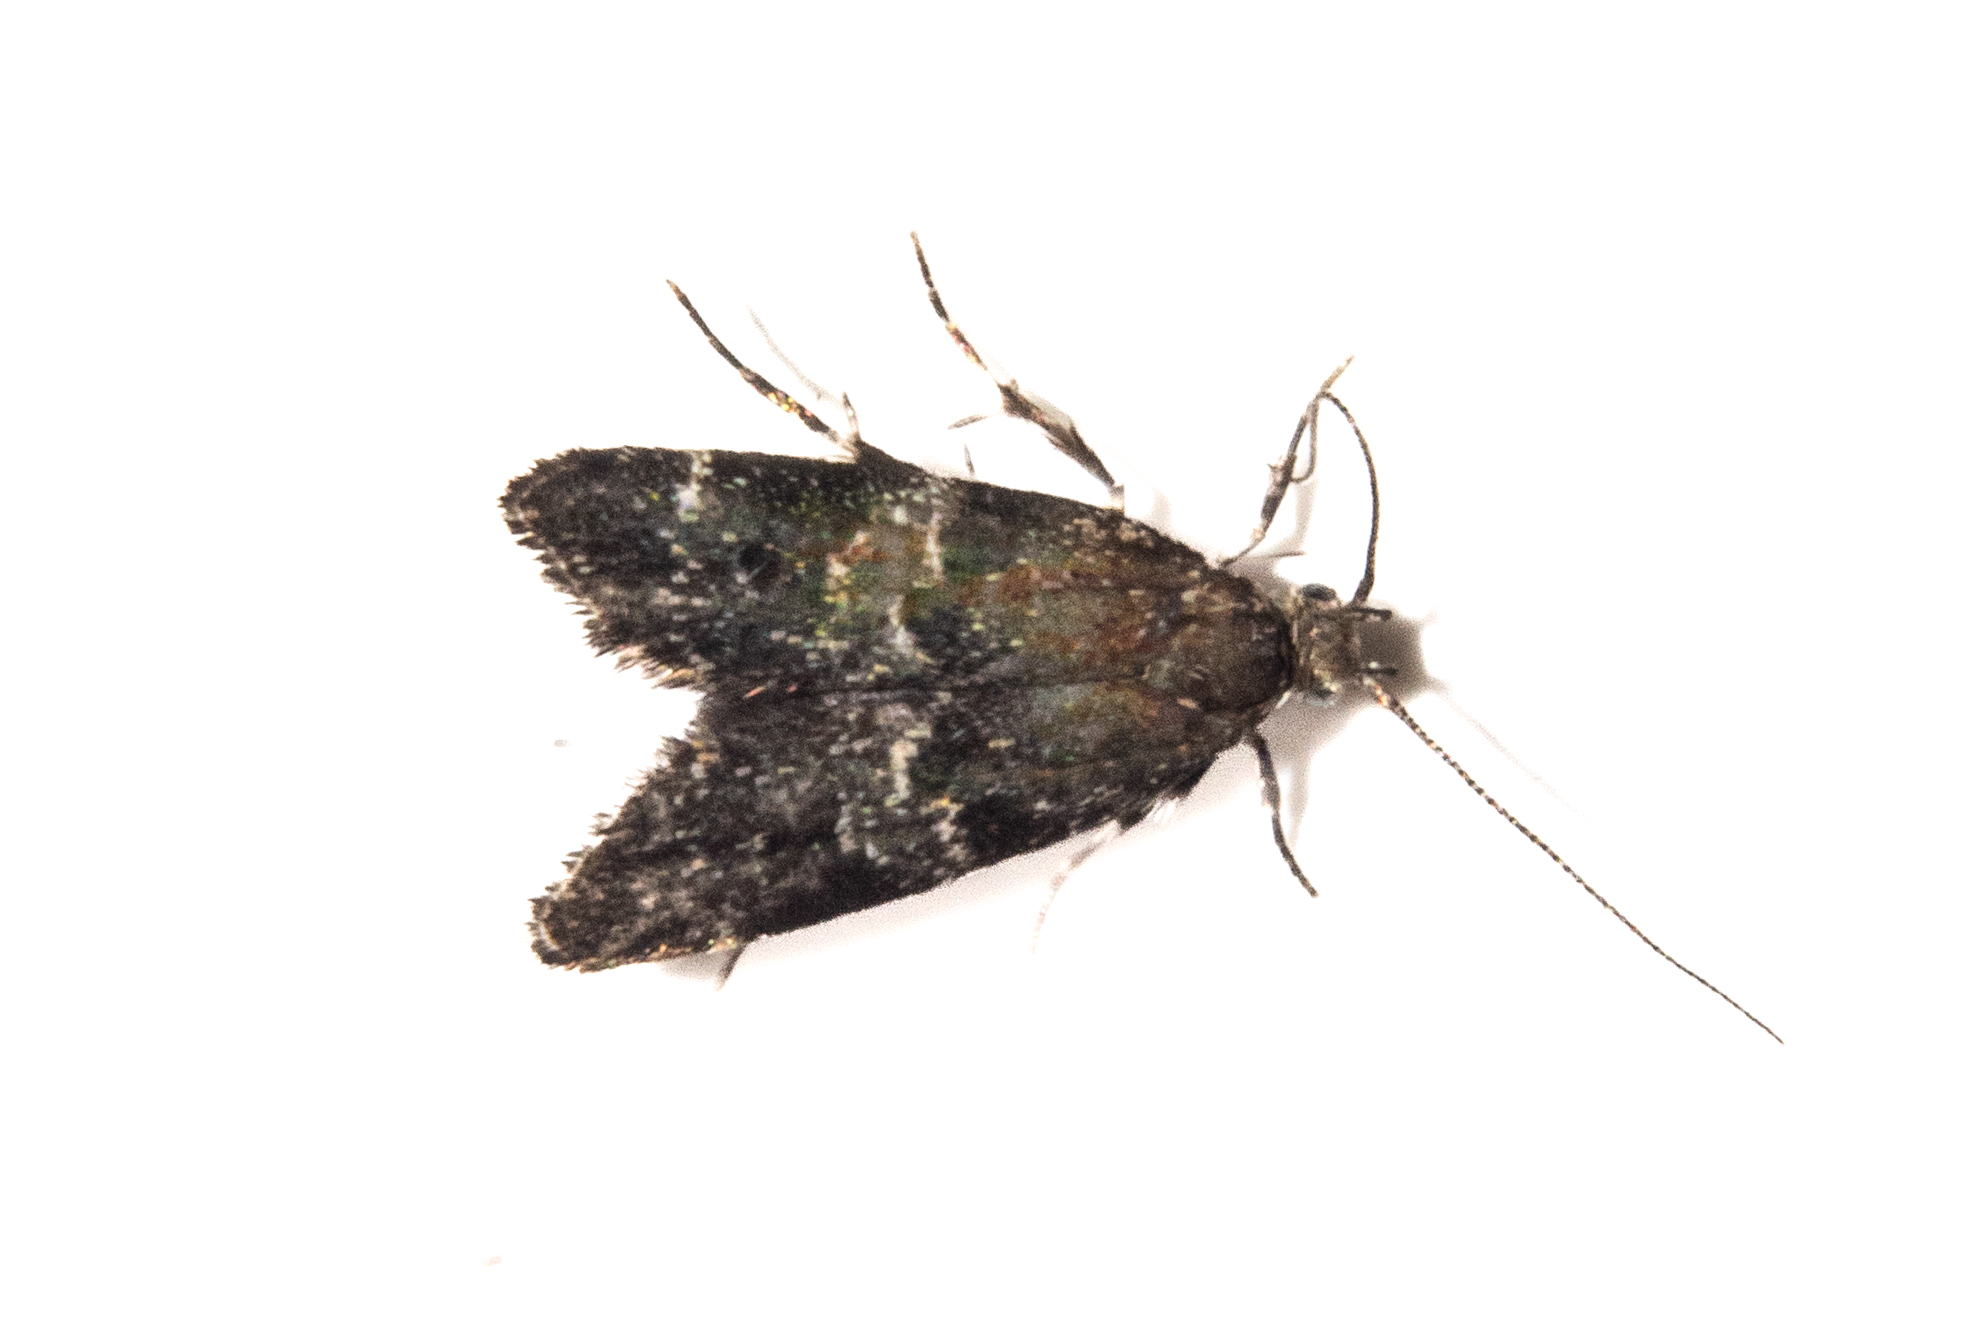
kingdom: Animalia
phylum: Arthropoda
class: Insecta
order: Lepidoptera
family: Oecophoridae
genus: Gymnobathra
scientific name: Gymnobathra omphalota
